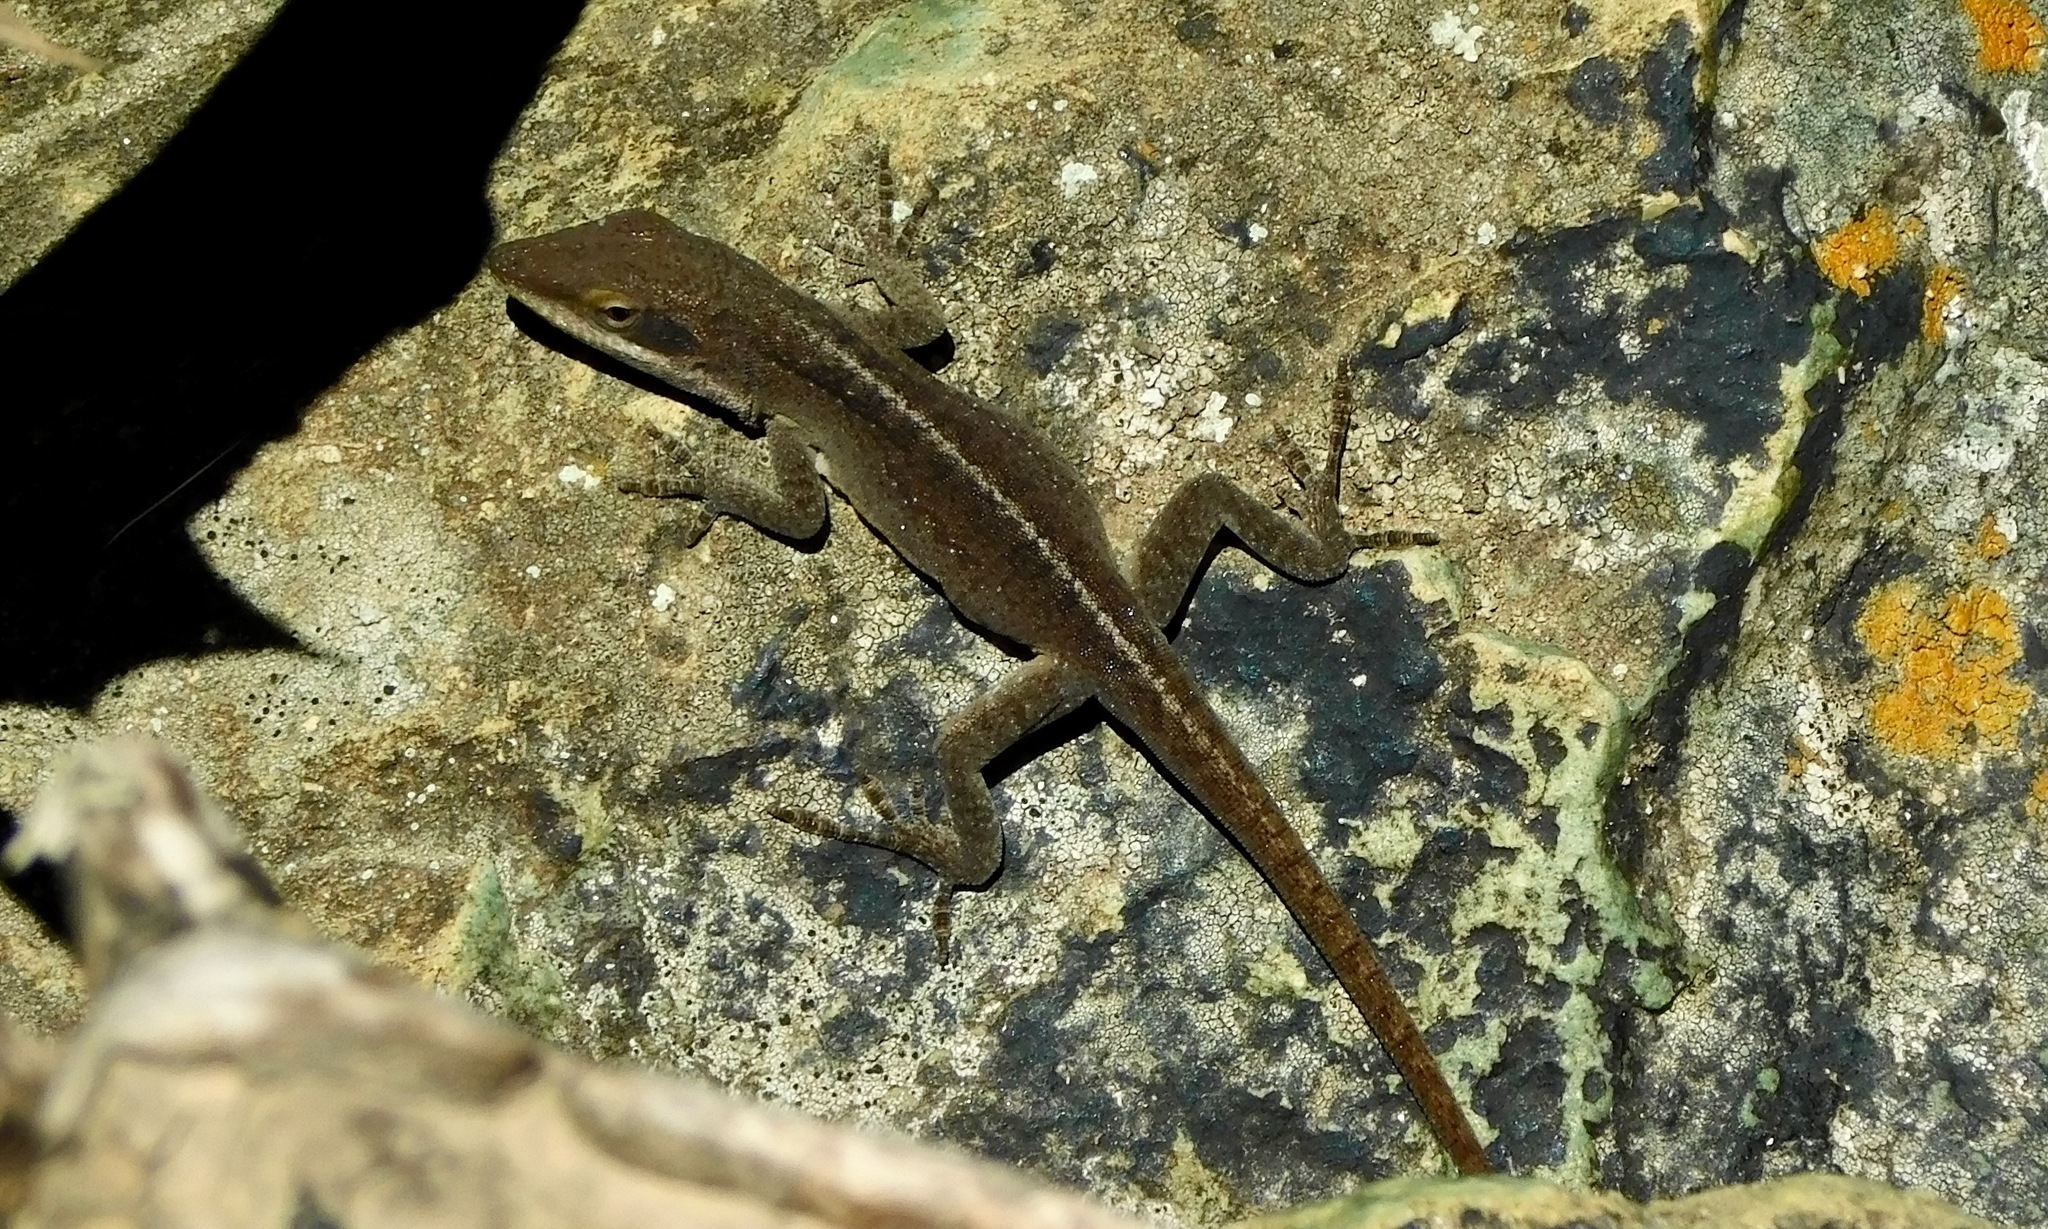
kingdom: Animalia
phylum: Chordata
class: Squamata
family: Dactyloidae
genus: Anolis
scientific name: Anolis carolinensis
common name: Green anole
